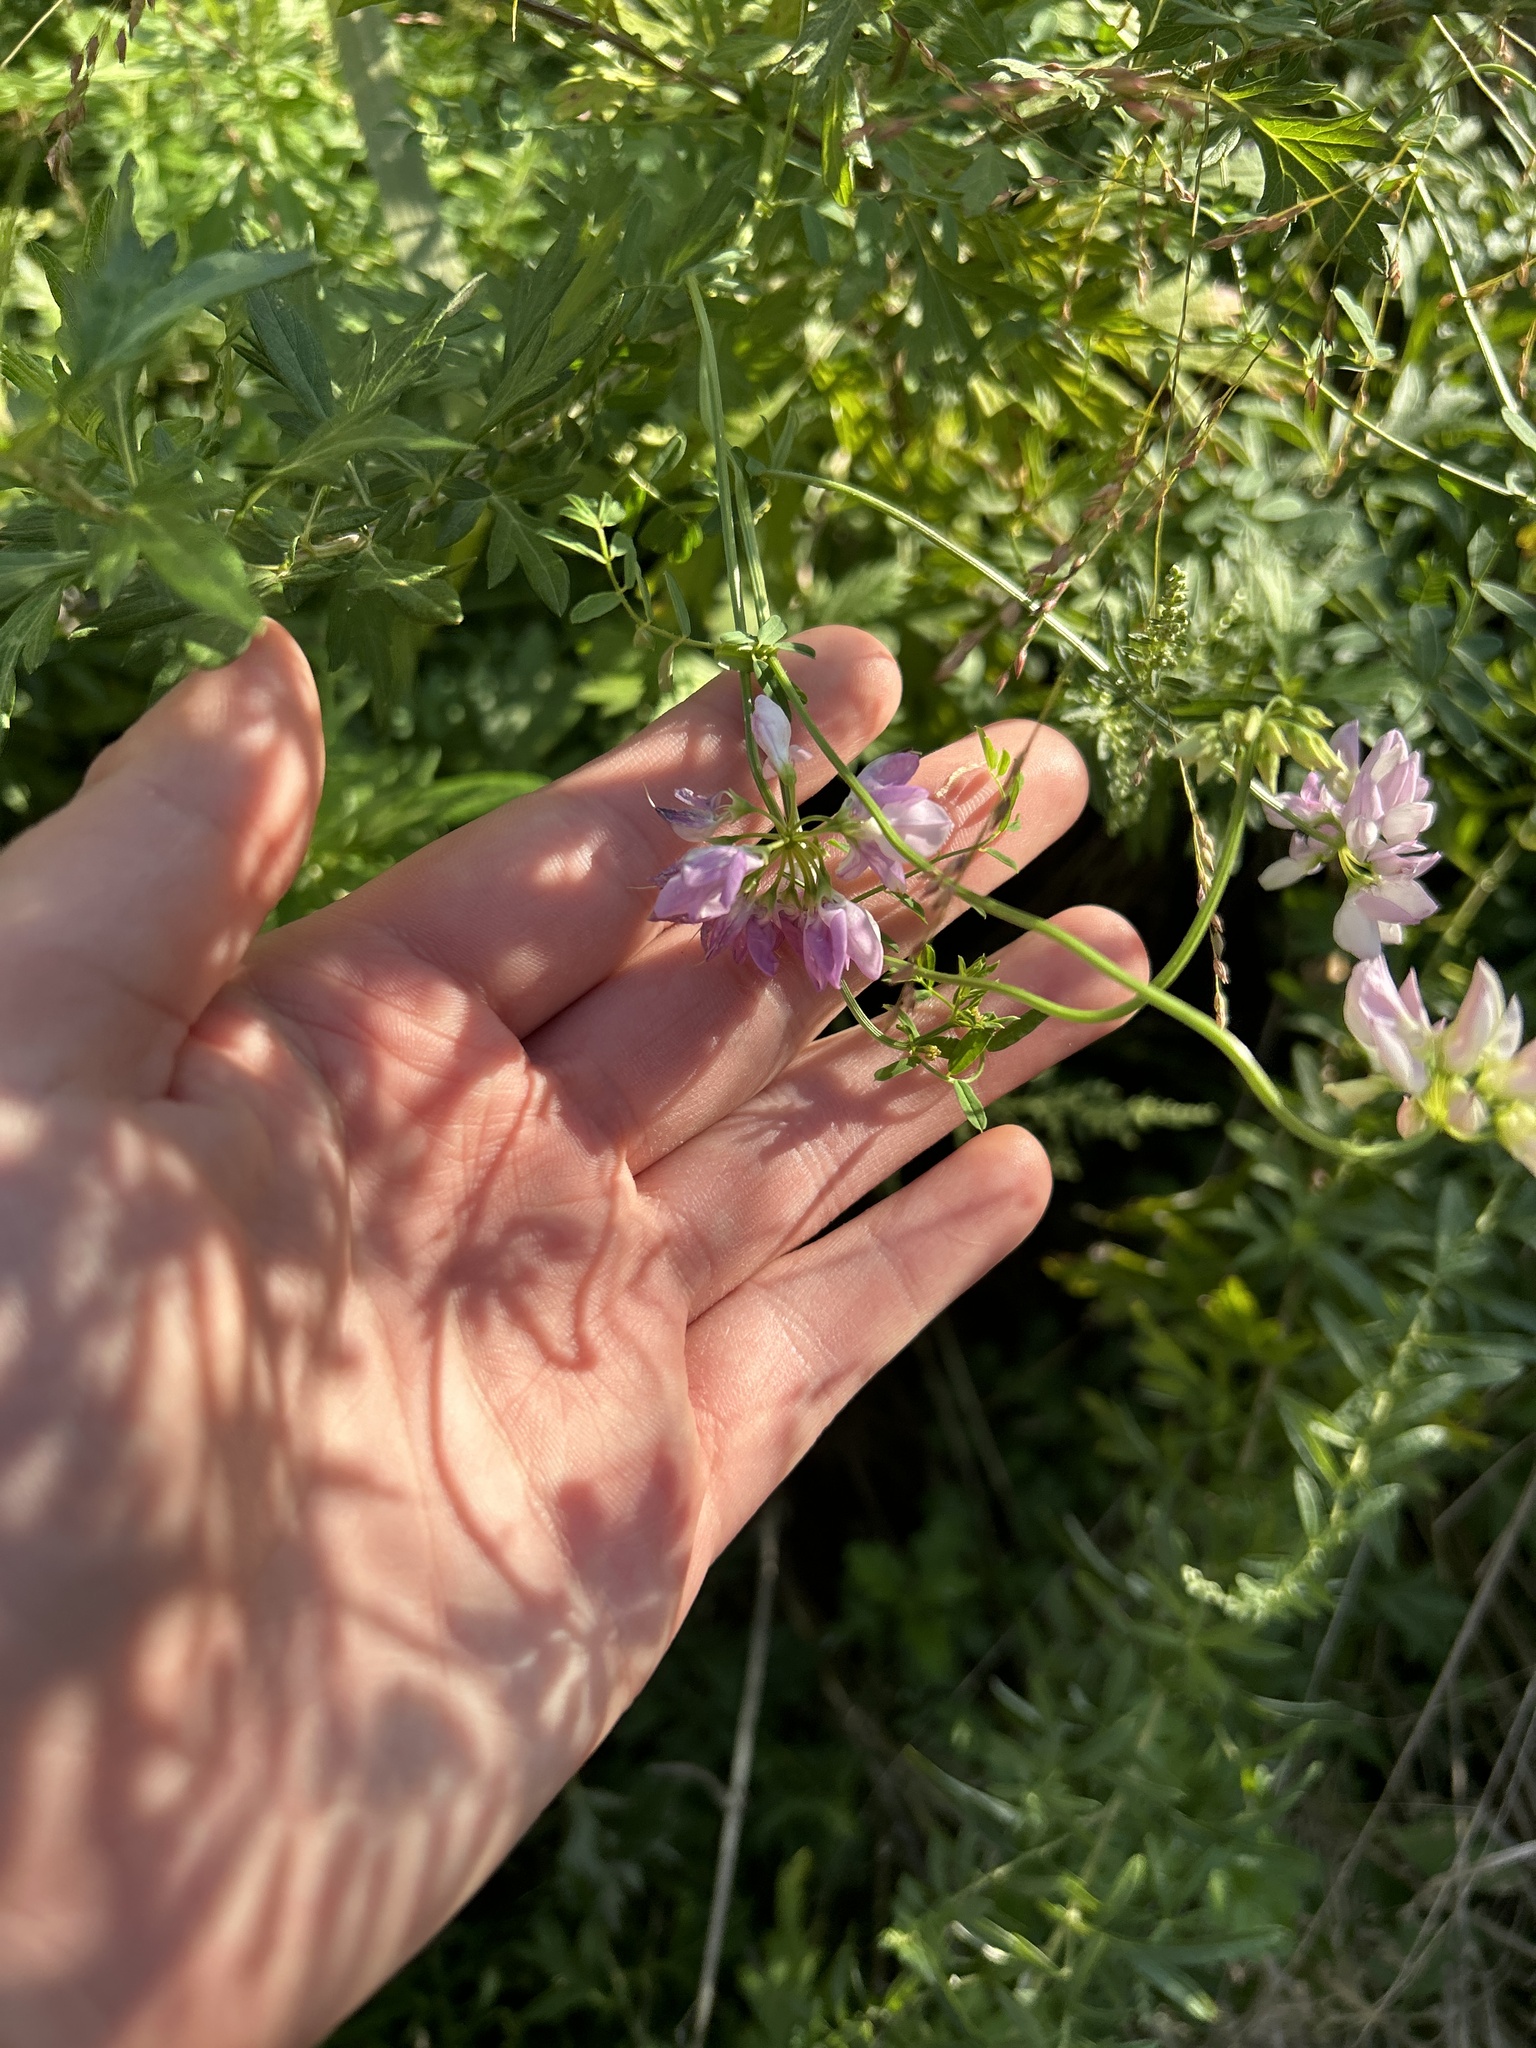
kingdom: Plantae
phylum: Tracheophyta
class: Magnoliopsida
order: Fabales
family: Fabaceae
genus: Coronilla
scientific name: Coronilla varia
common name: Crownvetch
